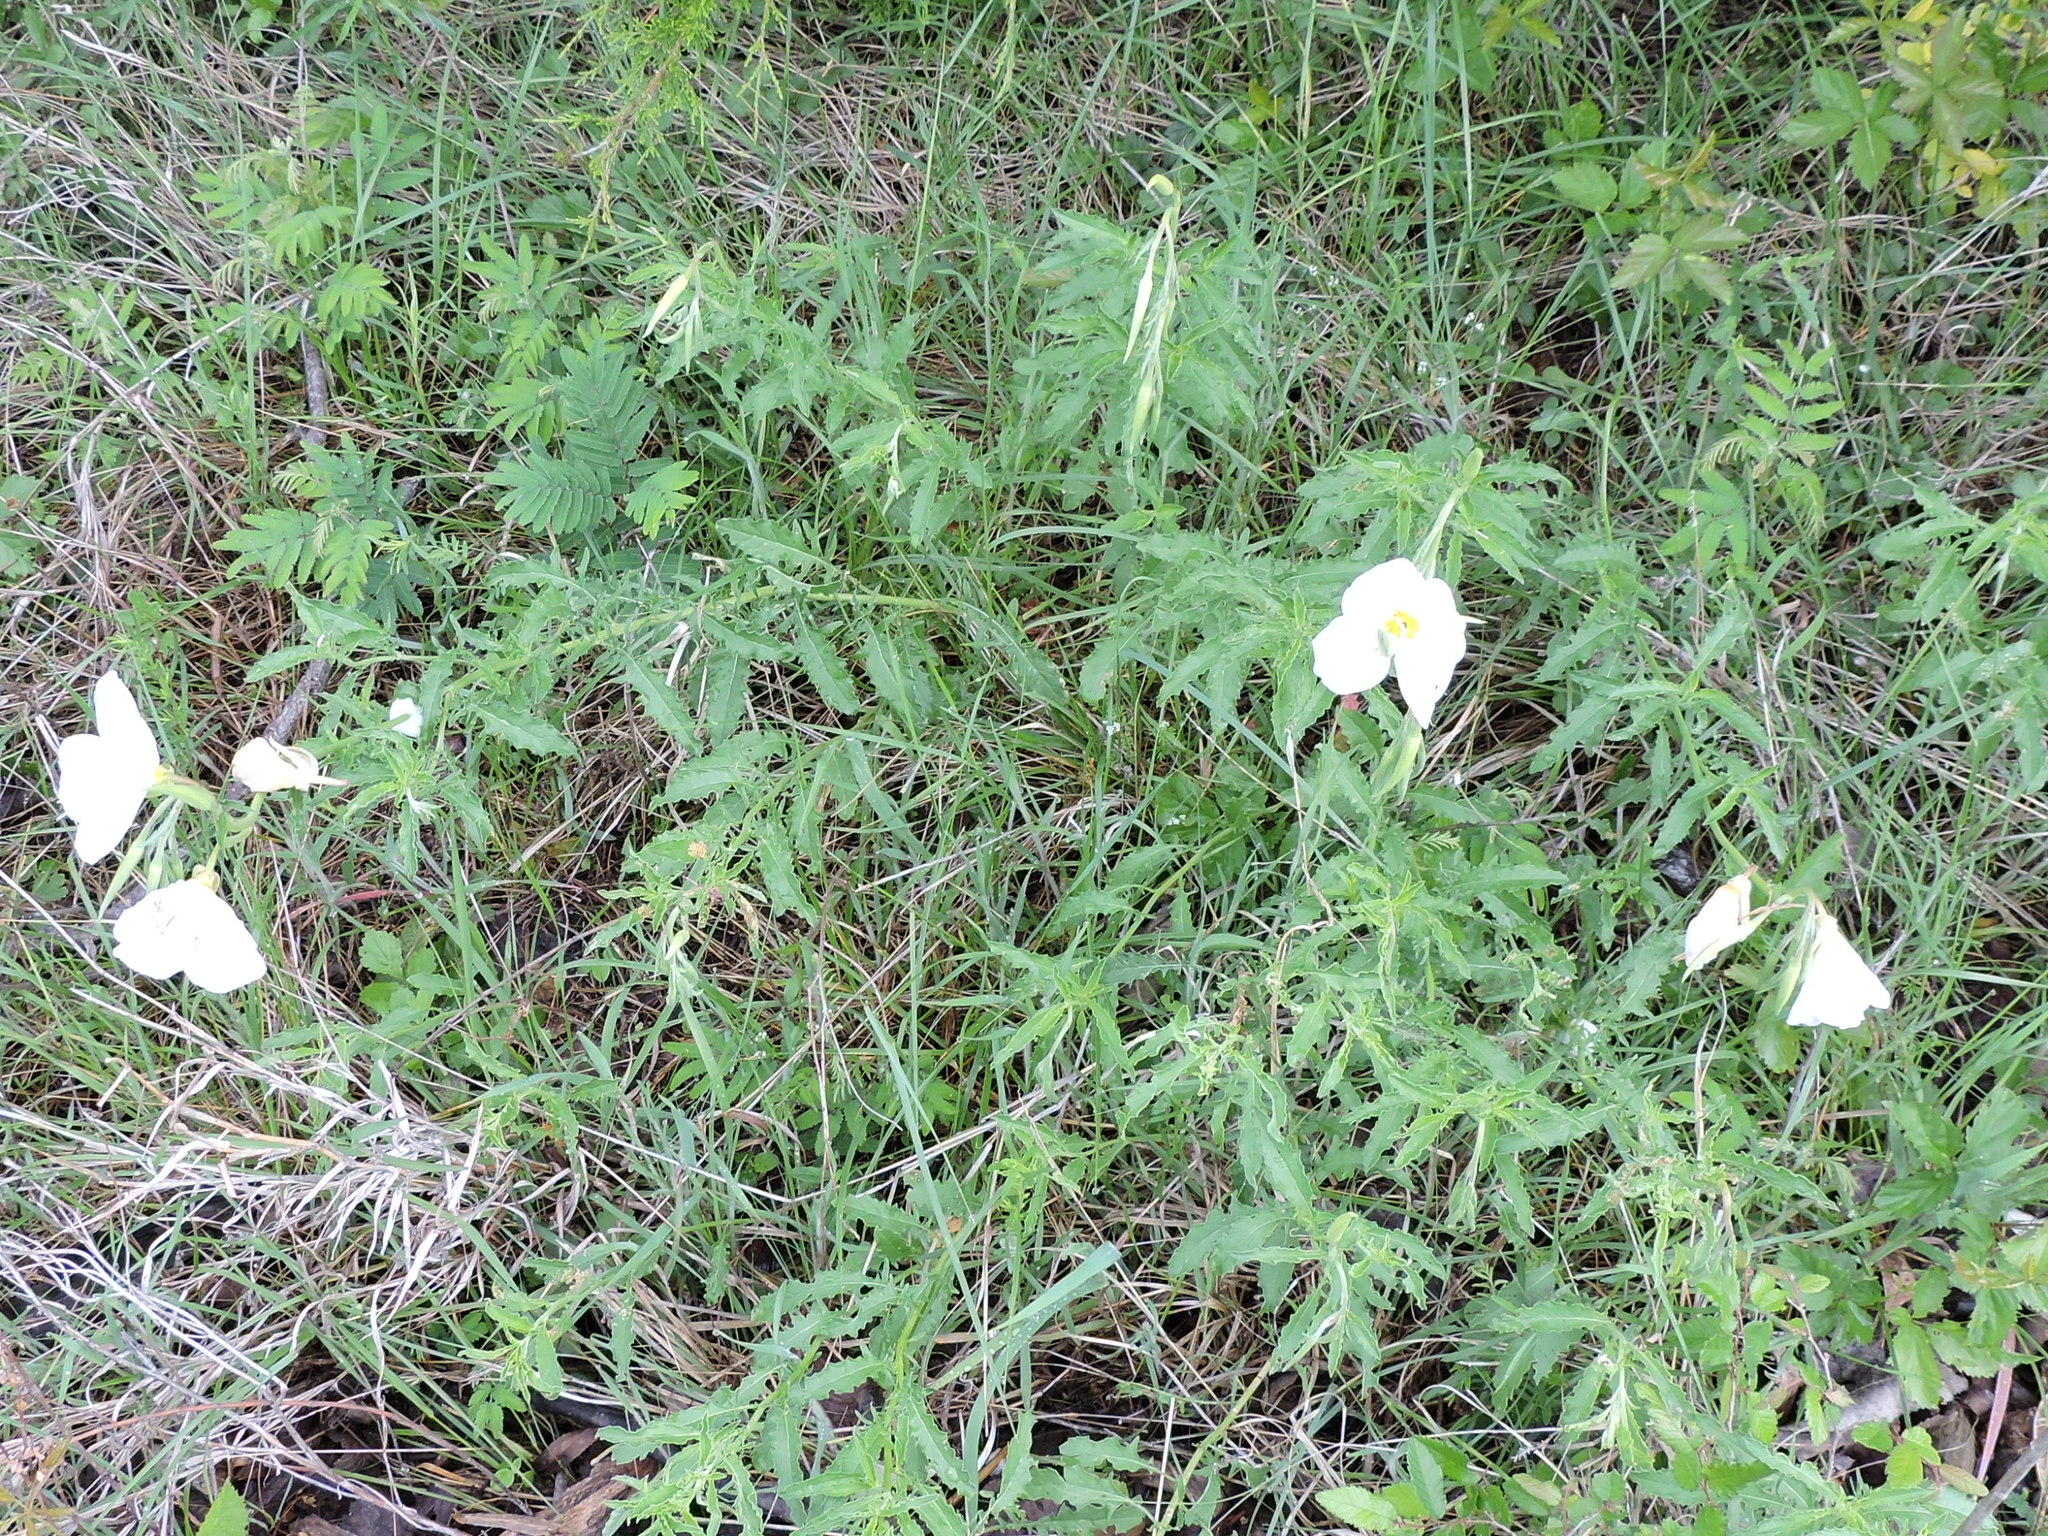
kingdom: Plantae
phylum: Tracheophyta
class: Magnoliopsida
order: Myrtales
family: Onagraceae
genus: Oenothera
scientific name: Oenothera speciosa
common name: White evening-primrose
